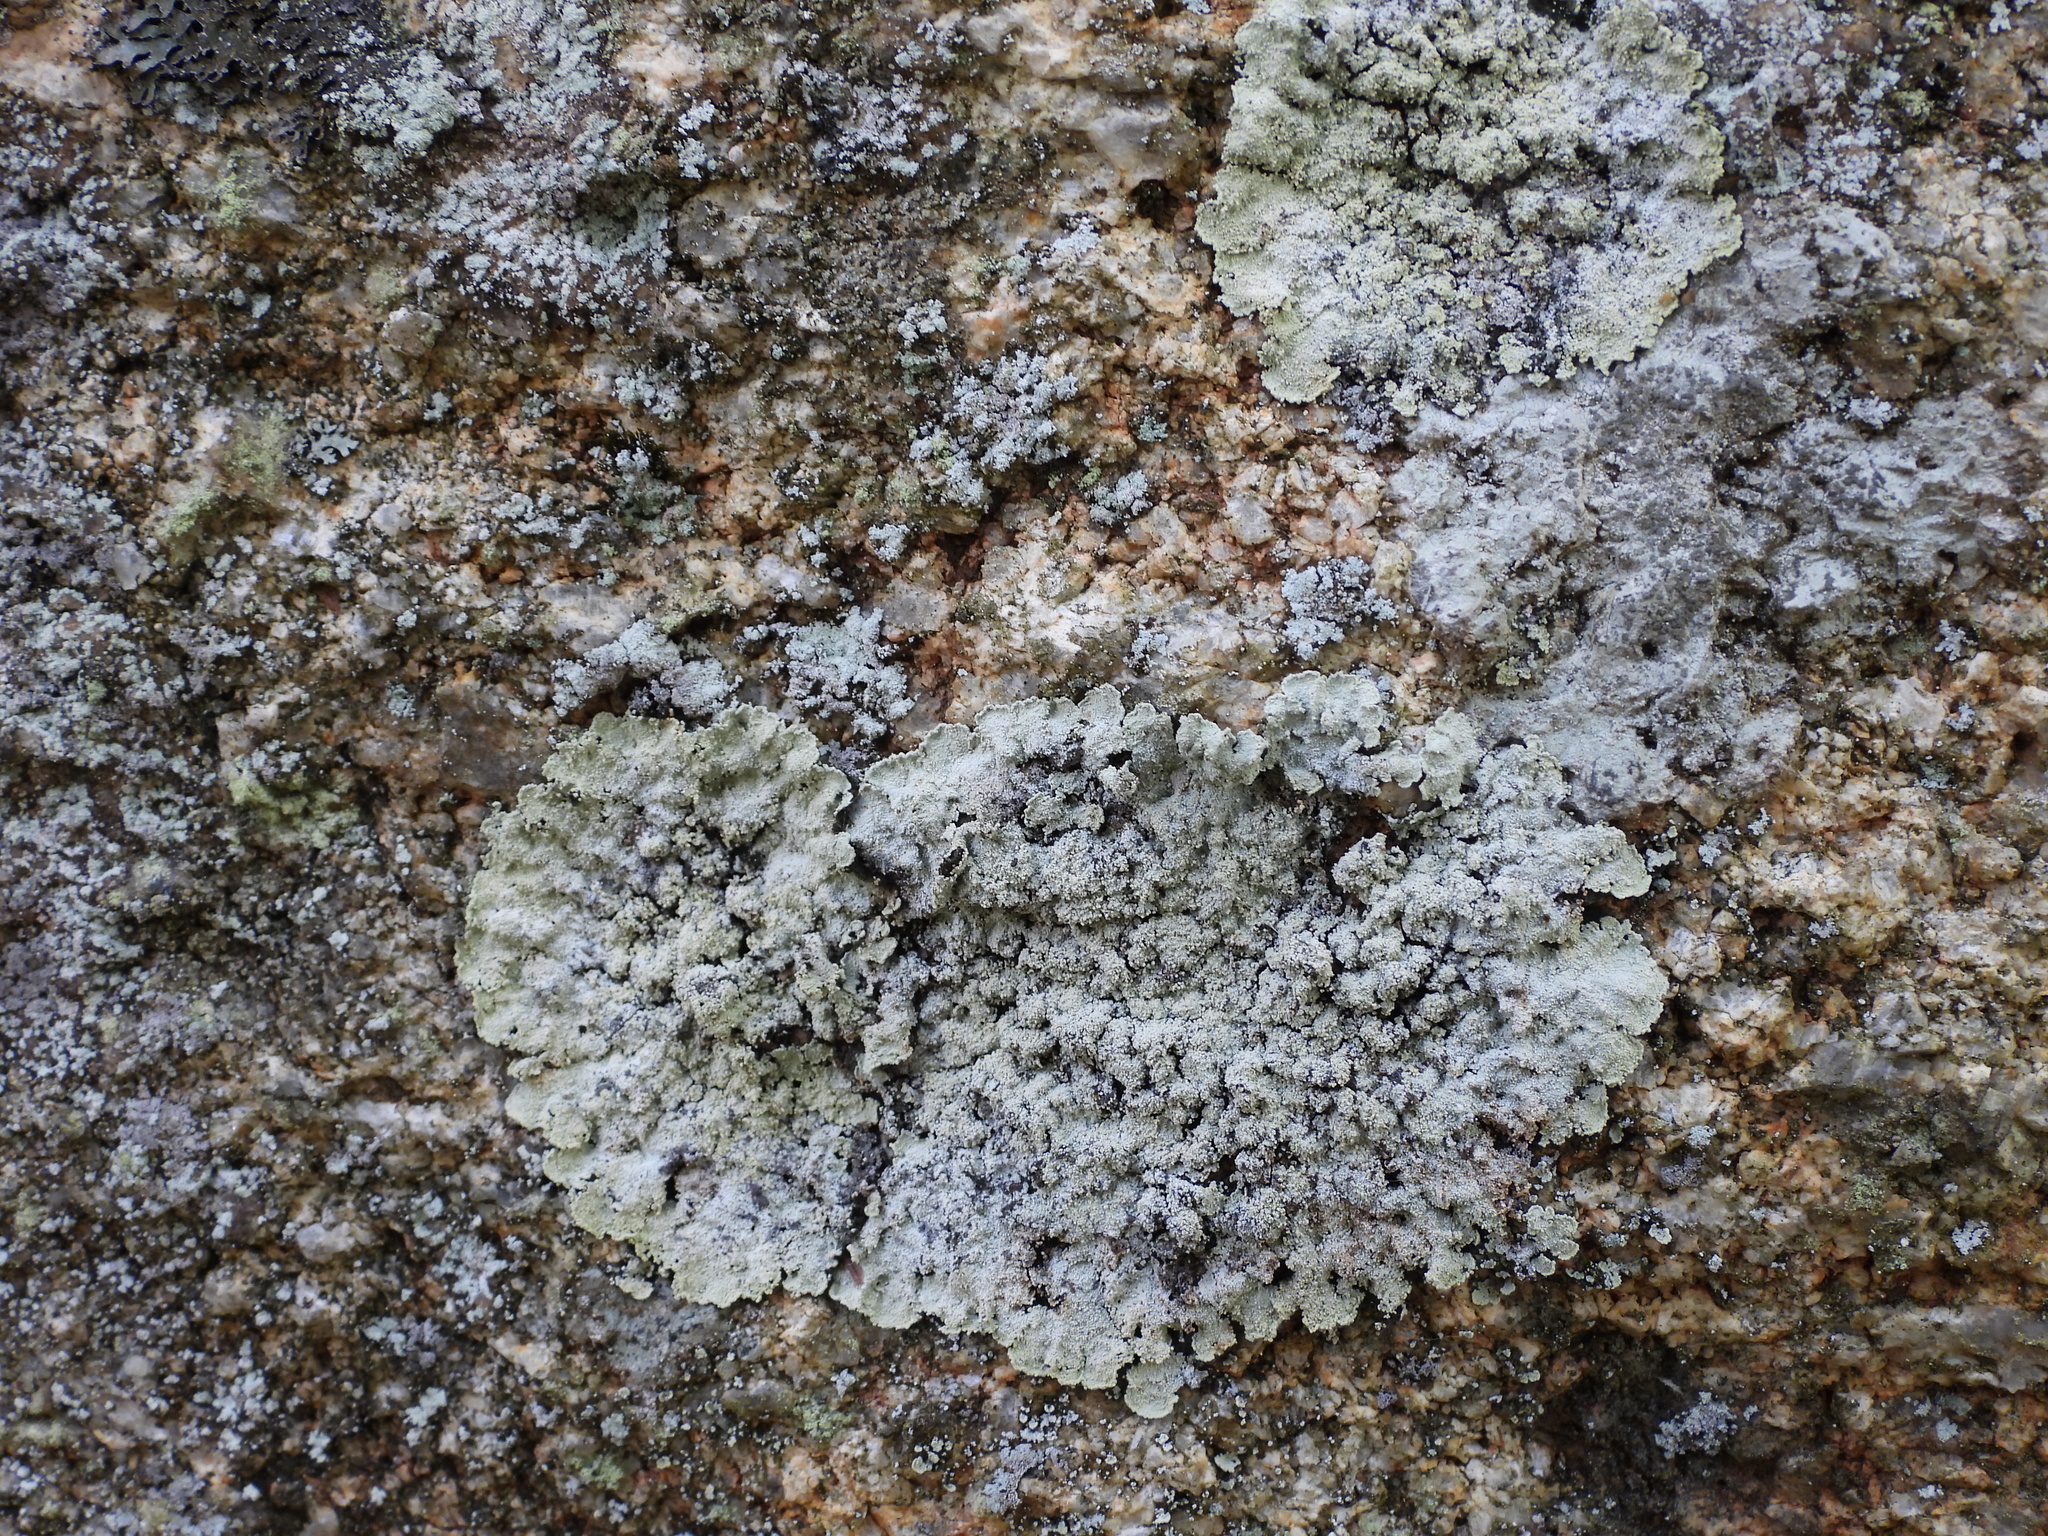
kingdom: Fungi
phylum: Ascomycota
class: Lecanoromycetes
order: Lecanorales
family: Stereocaulaceae
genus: Lepraria
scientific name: Lepraria membranacea
